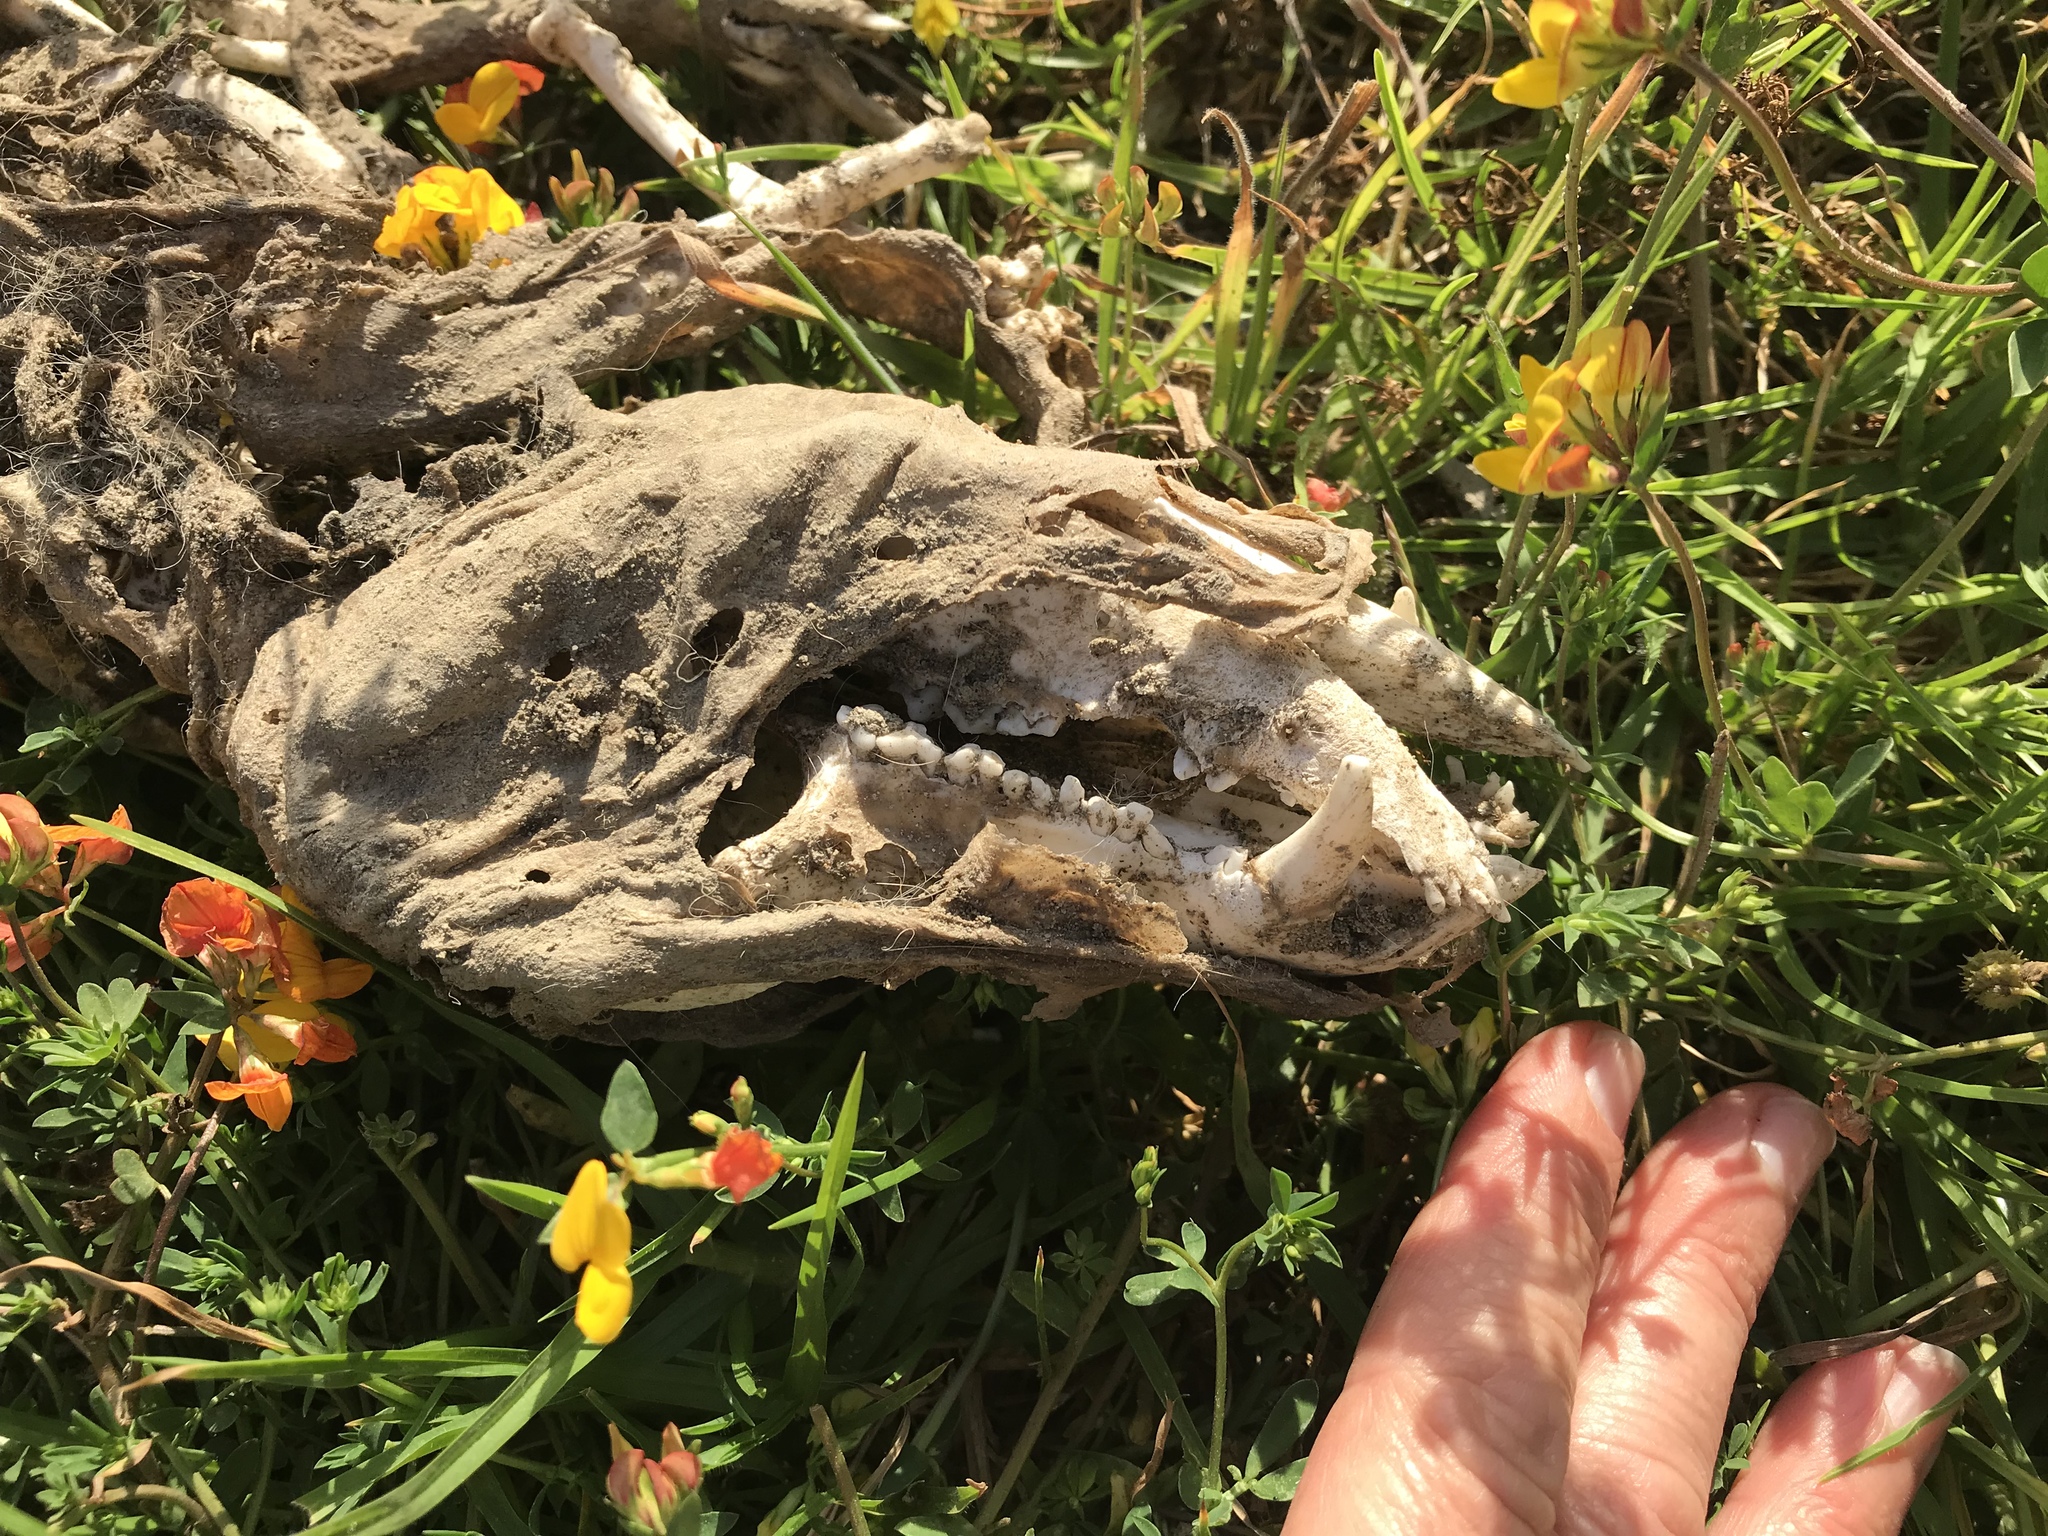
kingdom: Animalia
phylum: Chordata
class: Mammalia
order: Didelphimorphia
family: Didelphidae
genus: Didelphis
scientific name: Didelphis virginiana
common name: Virginia opossum
